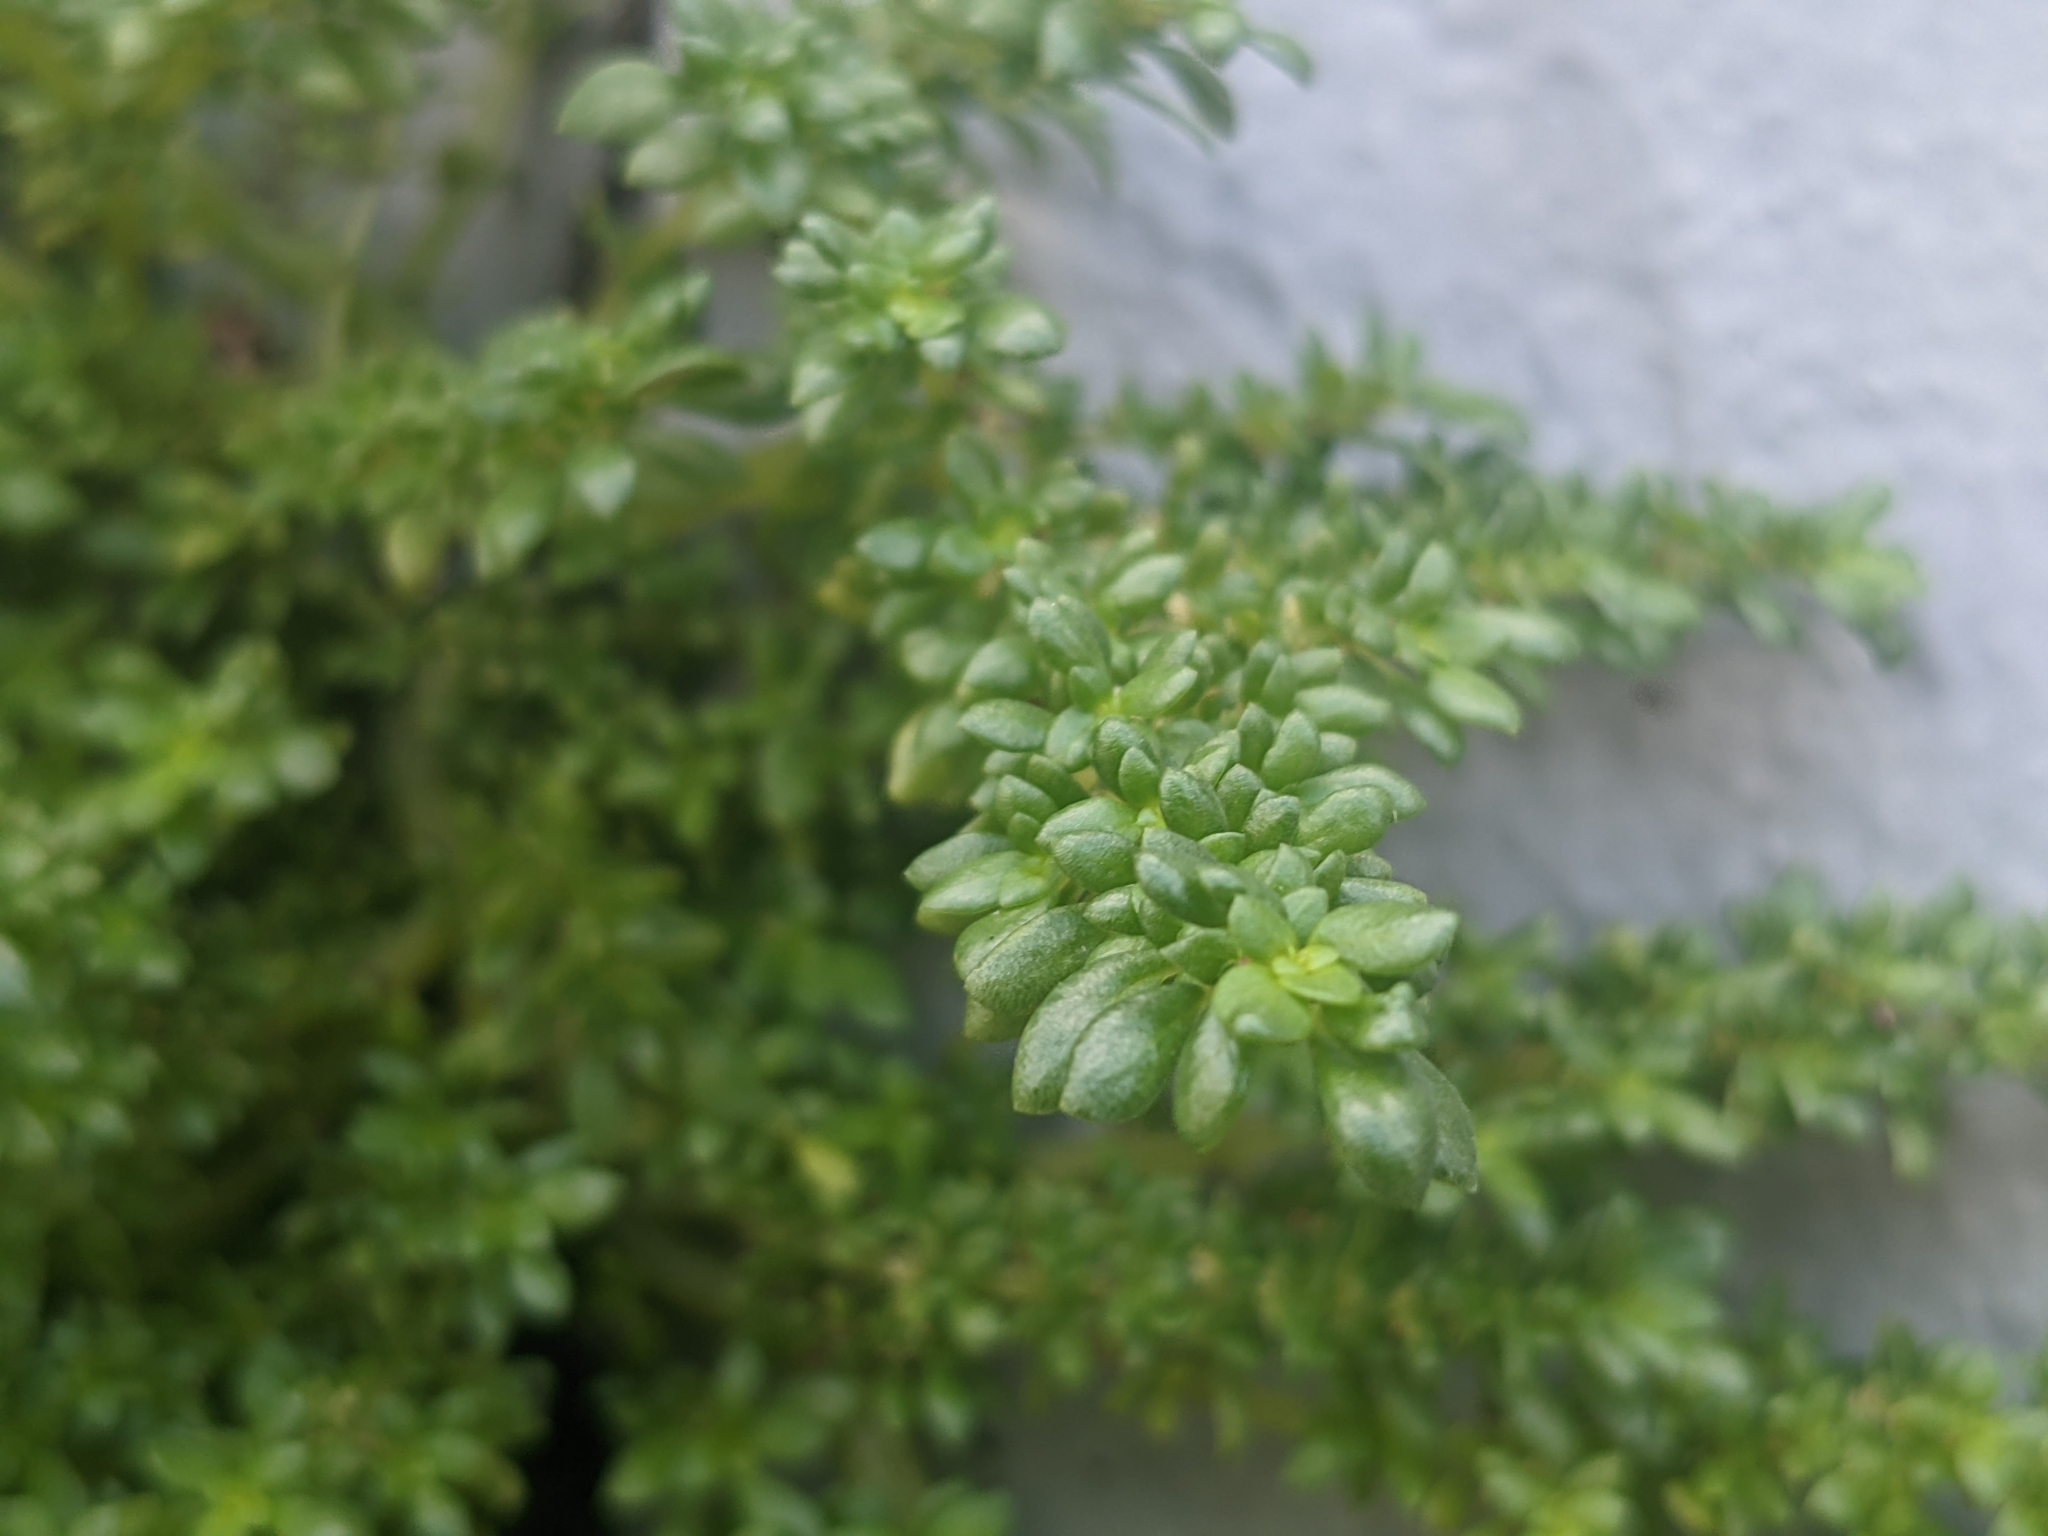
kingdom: Plantae
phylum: Tracheophyta
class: Magnoliopsida
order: Rosales
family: Urticaceae
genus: Pilea
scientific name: Pilea microphylla
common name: Artillery-plant
